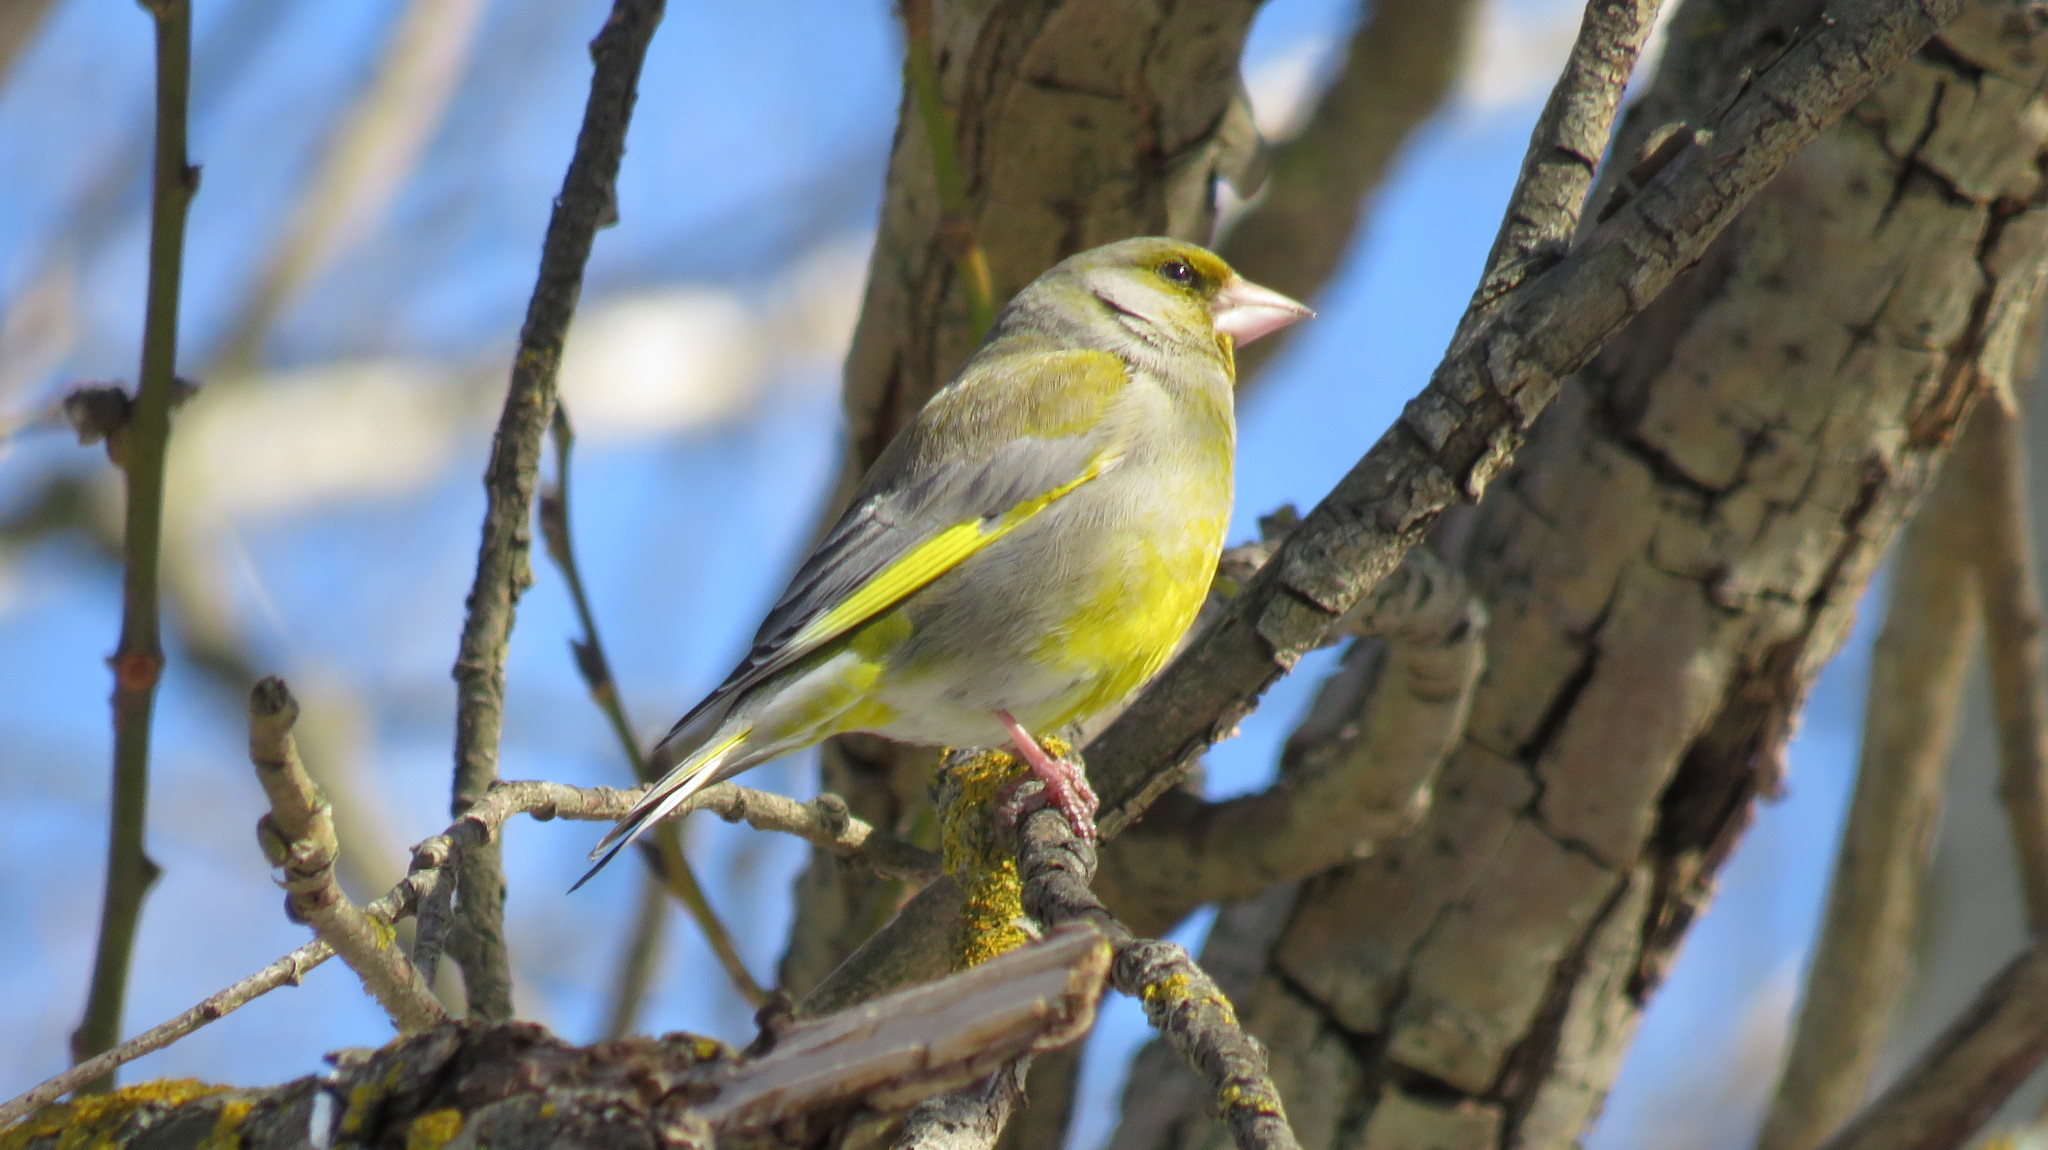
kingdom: Plantae
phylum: Tracheophyta
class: Liliopsida
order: Poales
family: Poaceae
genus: Chloris
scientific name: Chloris chloris
